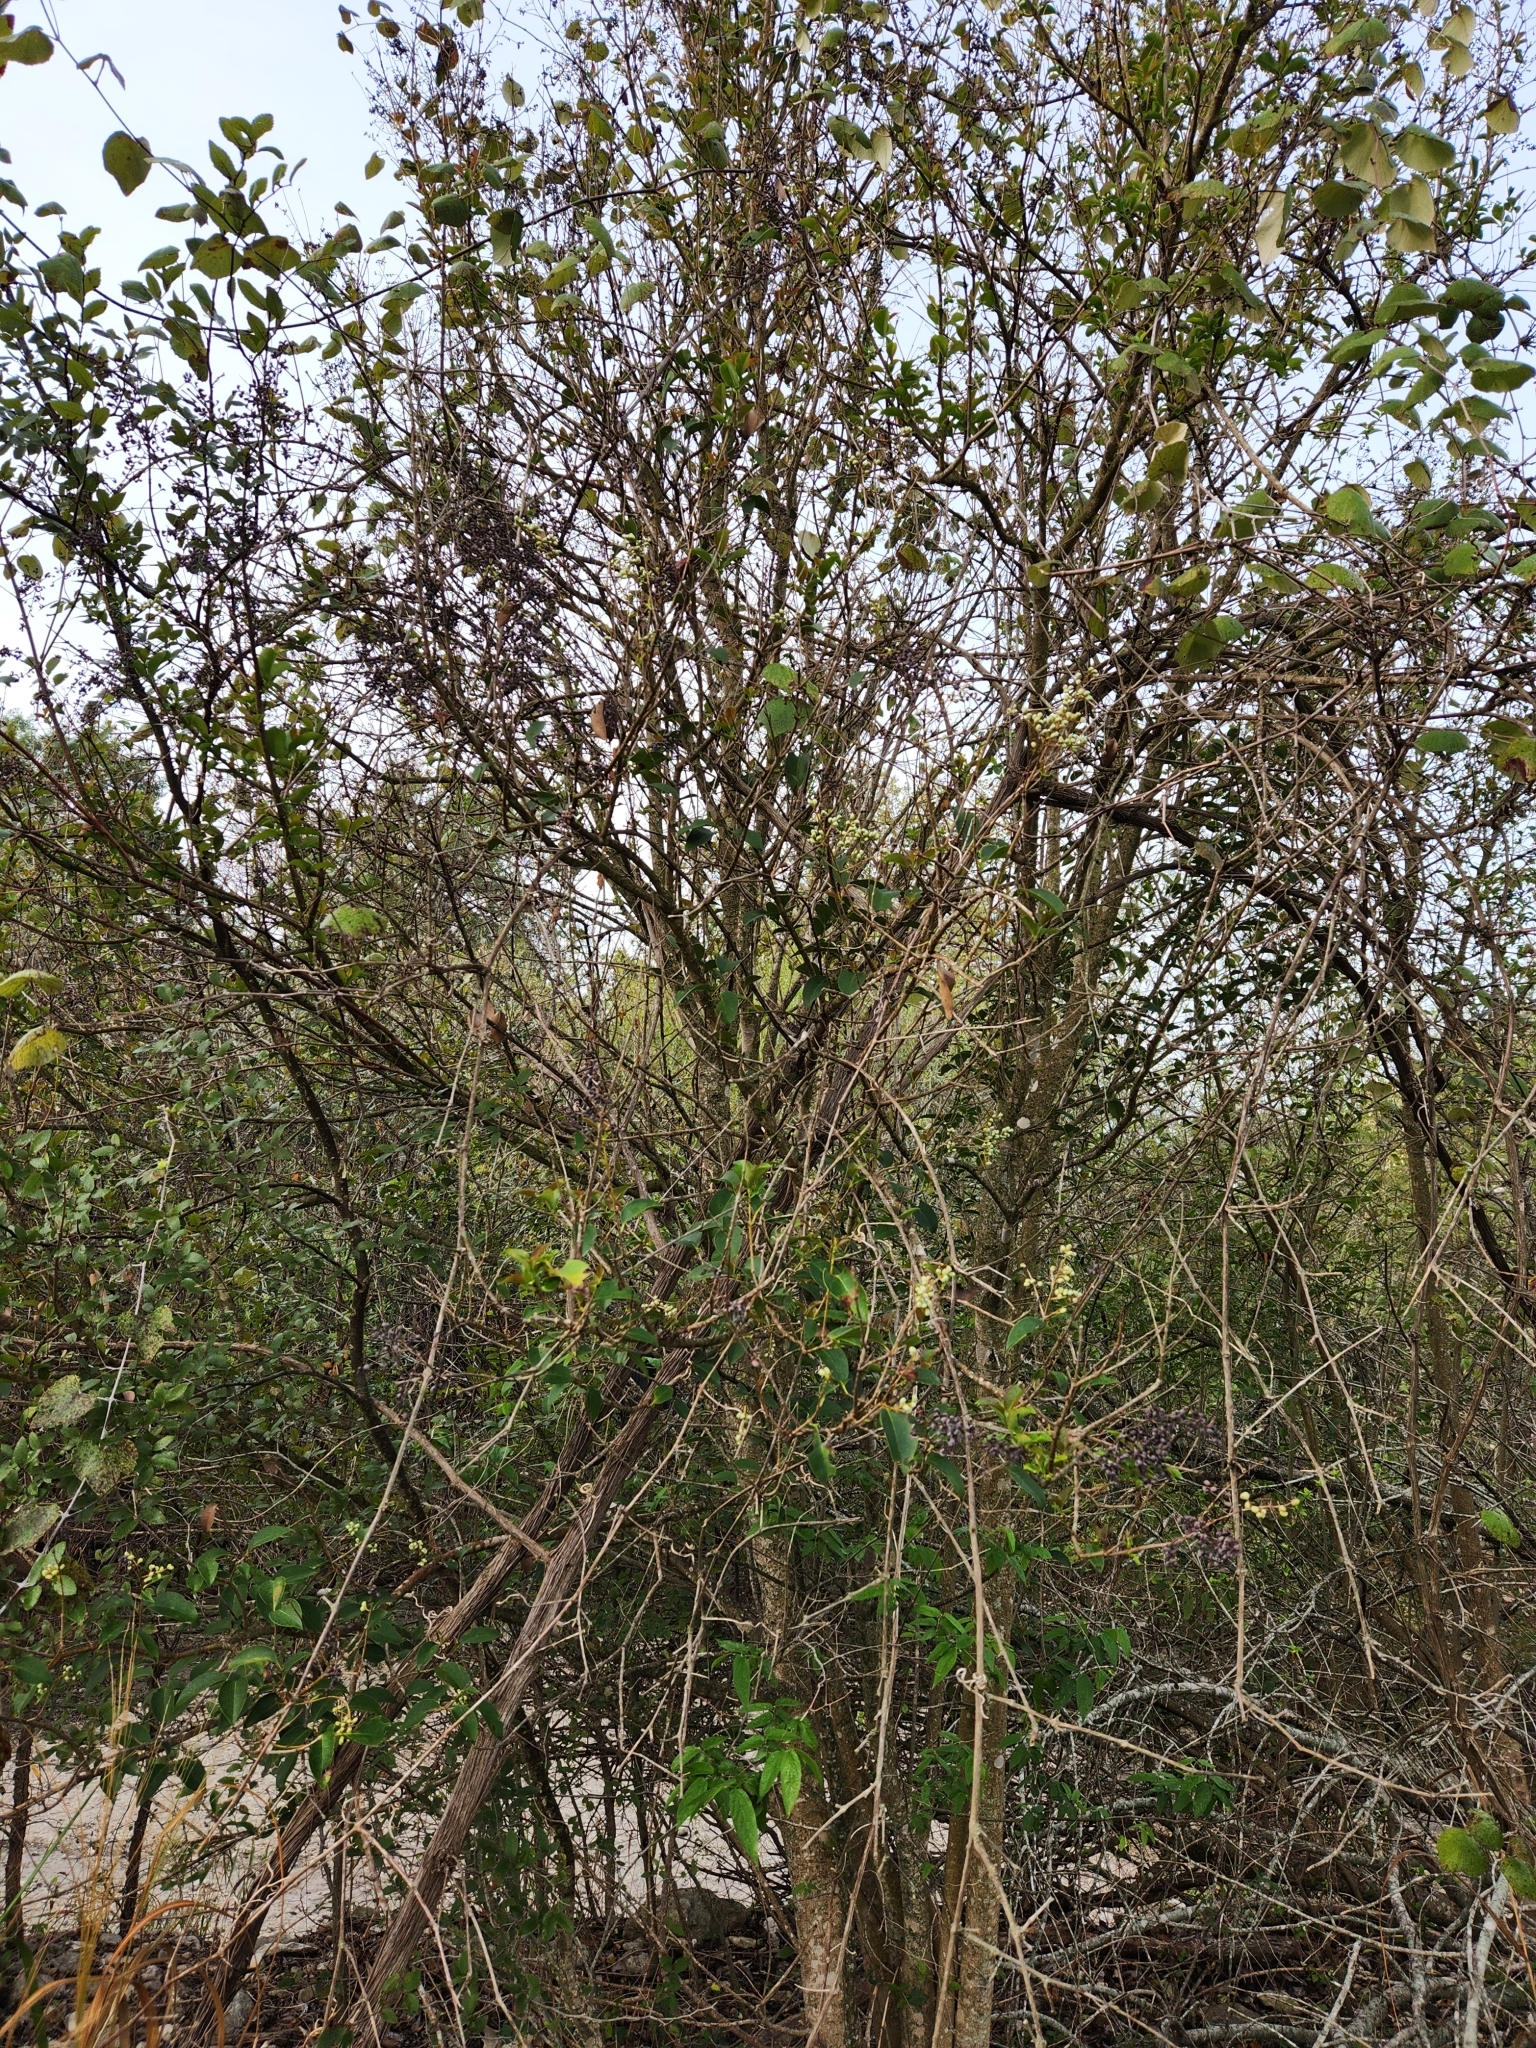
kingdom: Plantae
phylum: Tracheophyta
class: Magnoliopsida
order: Lamiales
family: Oleaceae
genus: Ligustrum
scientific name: Ligustrum lucidum
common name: Glossy privet
